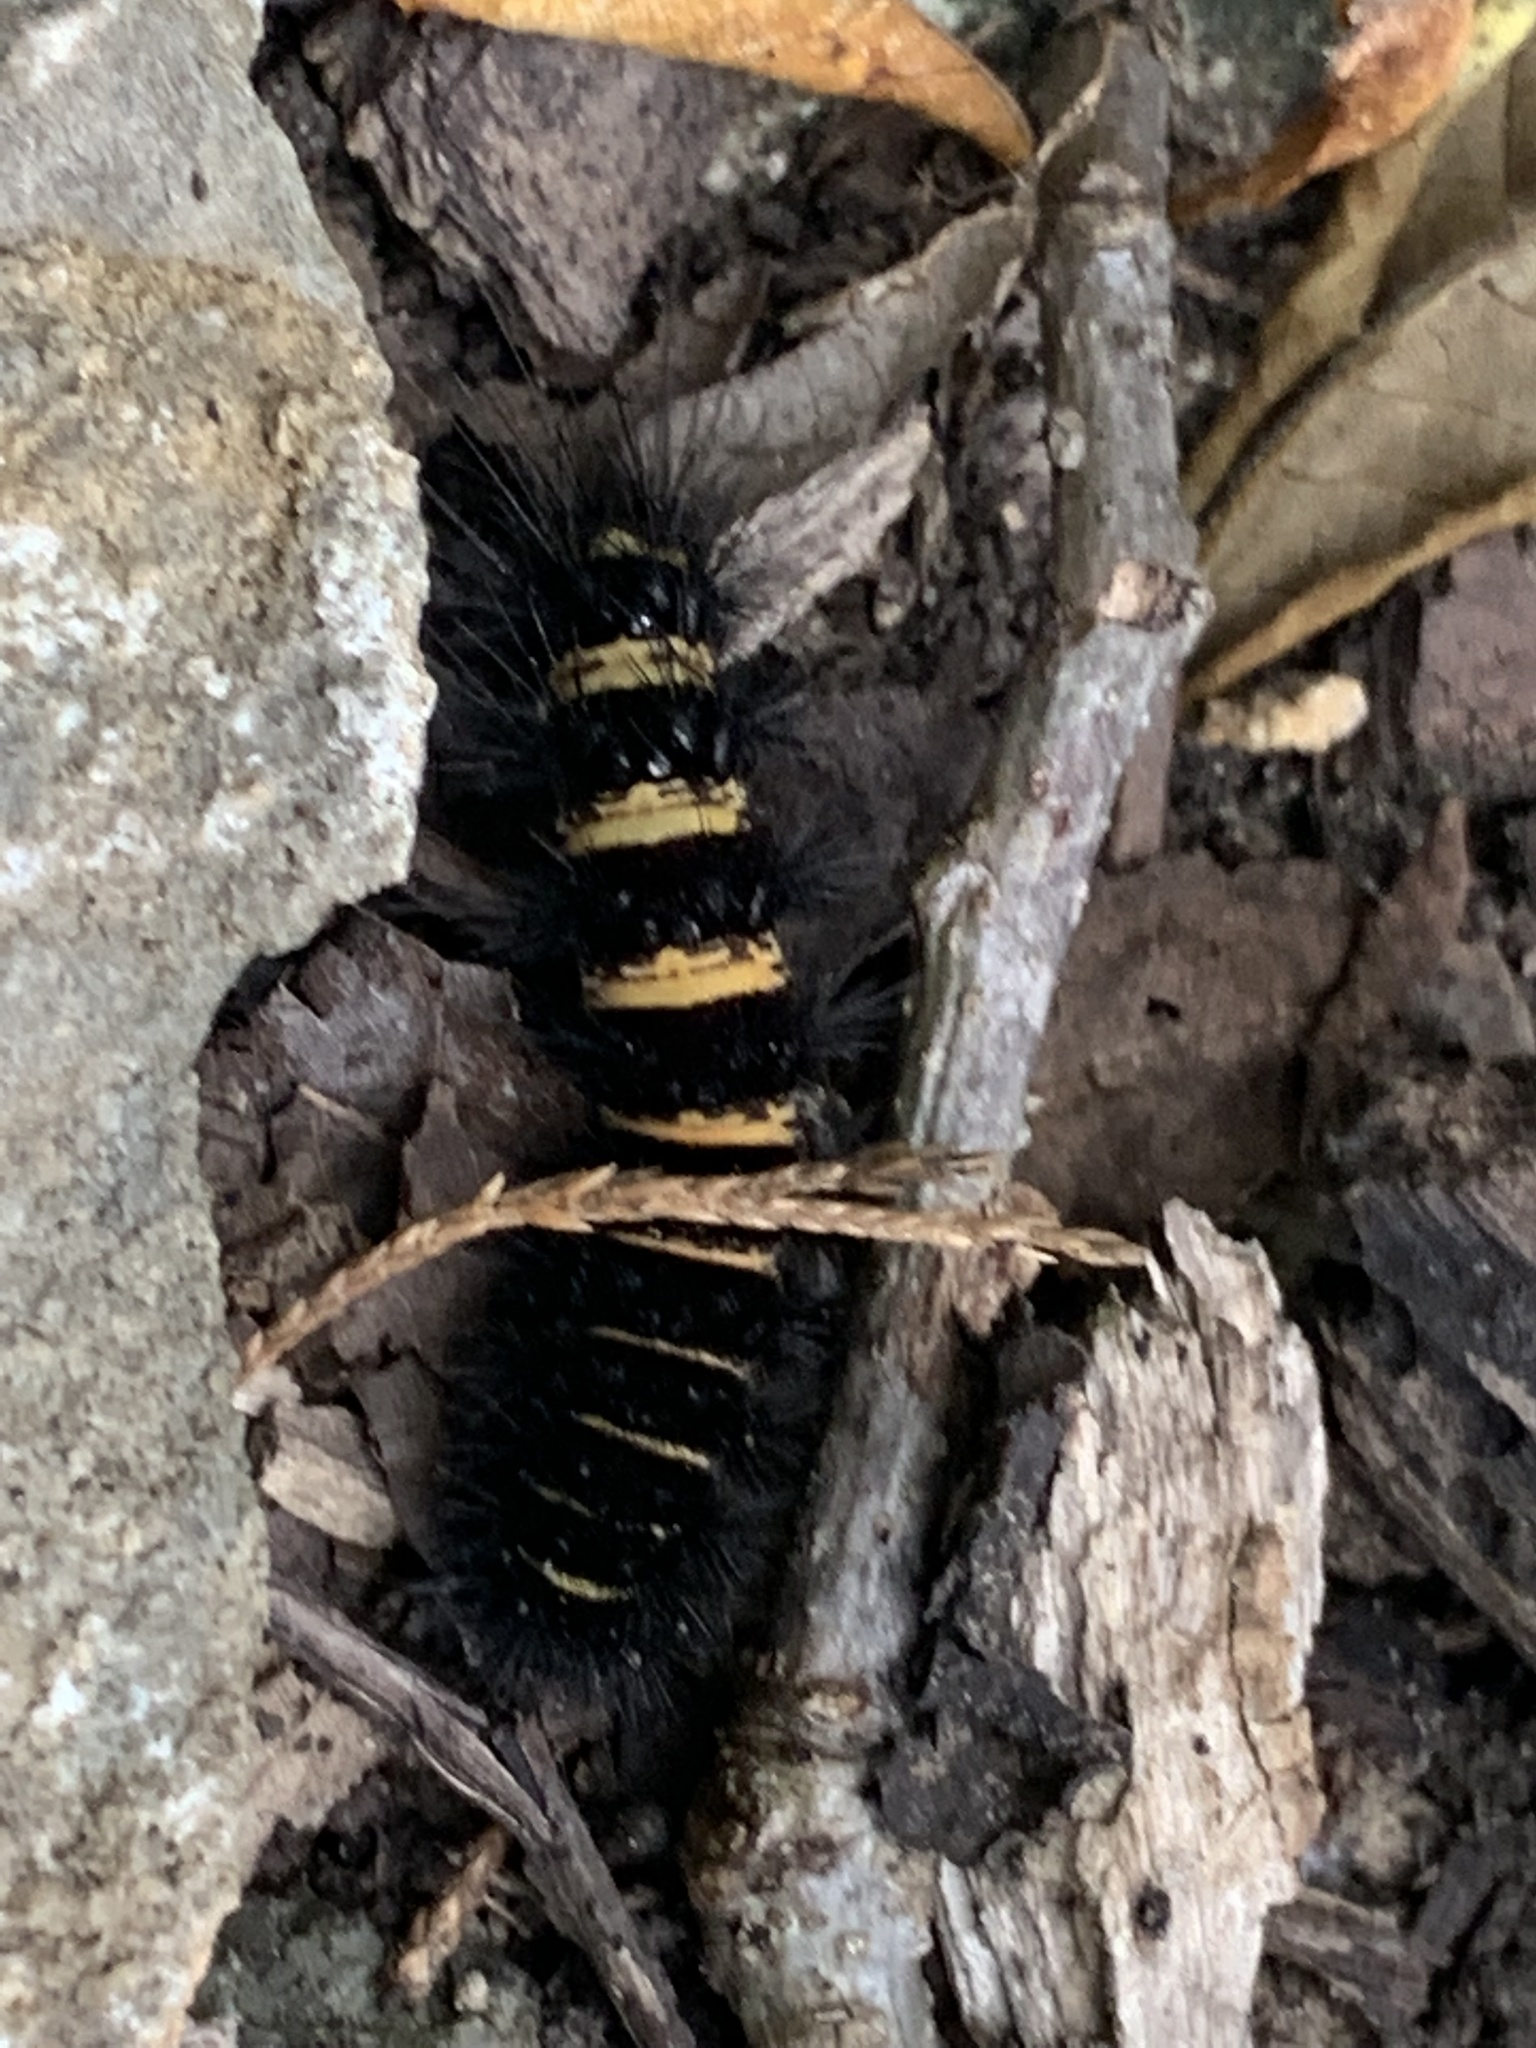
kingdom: Animalia
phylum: Arthropoda
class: Insecta
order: Lepidoptera
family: Erebidae
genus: Spilosoma
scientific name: Spilosoma congrua
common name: Agreeable tiger moth
